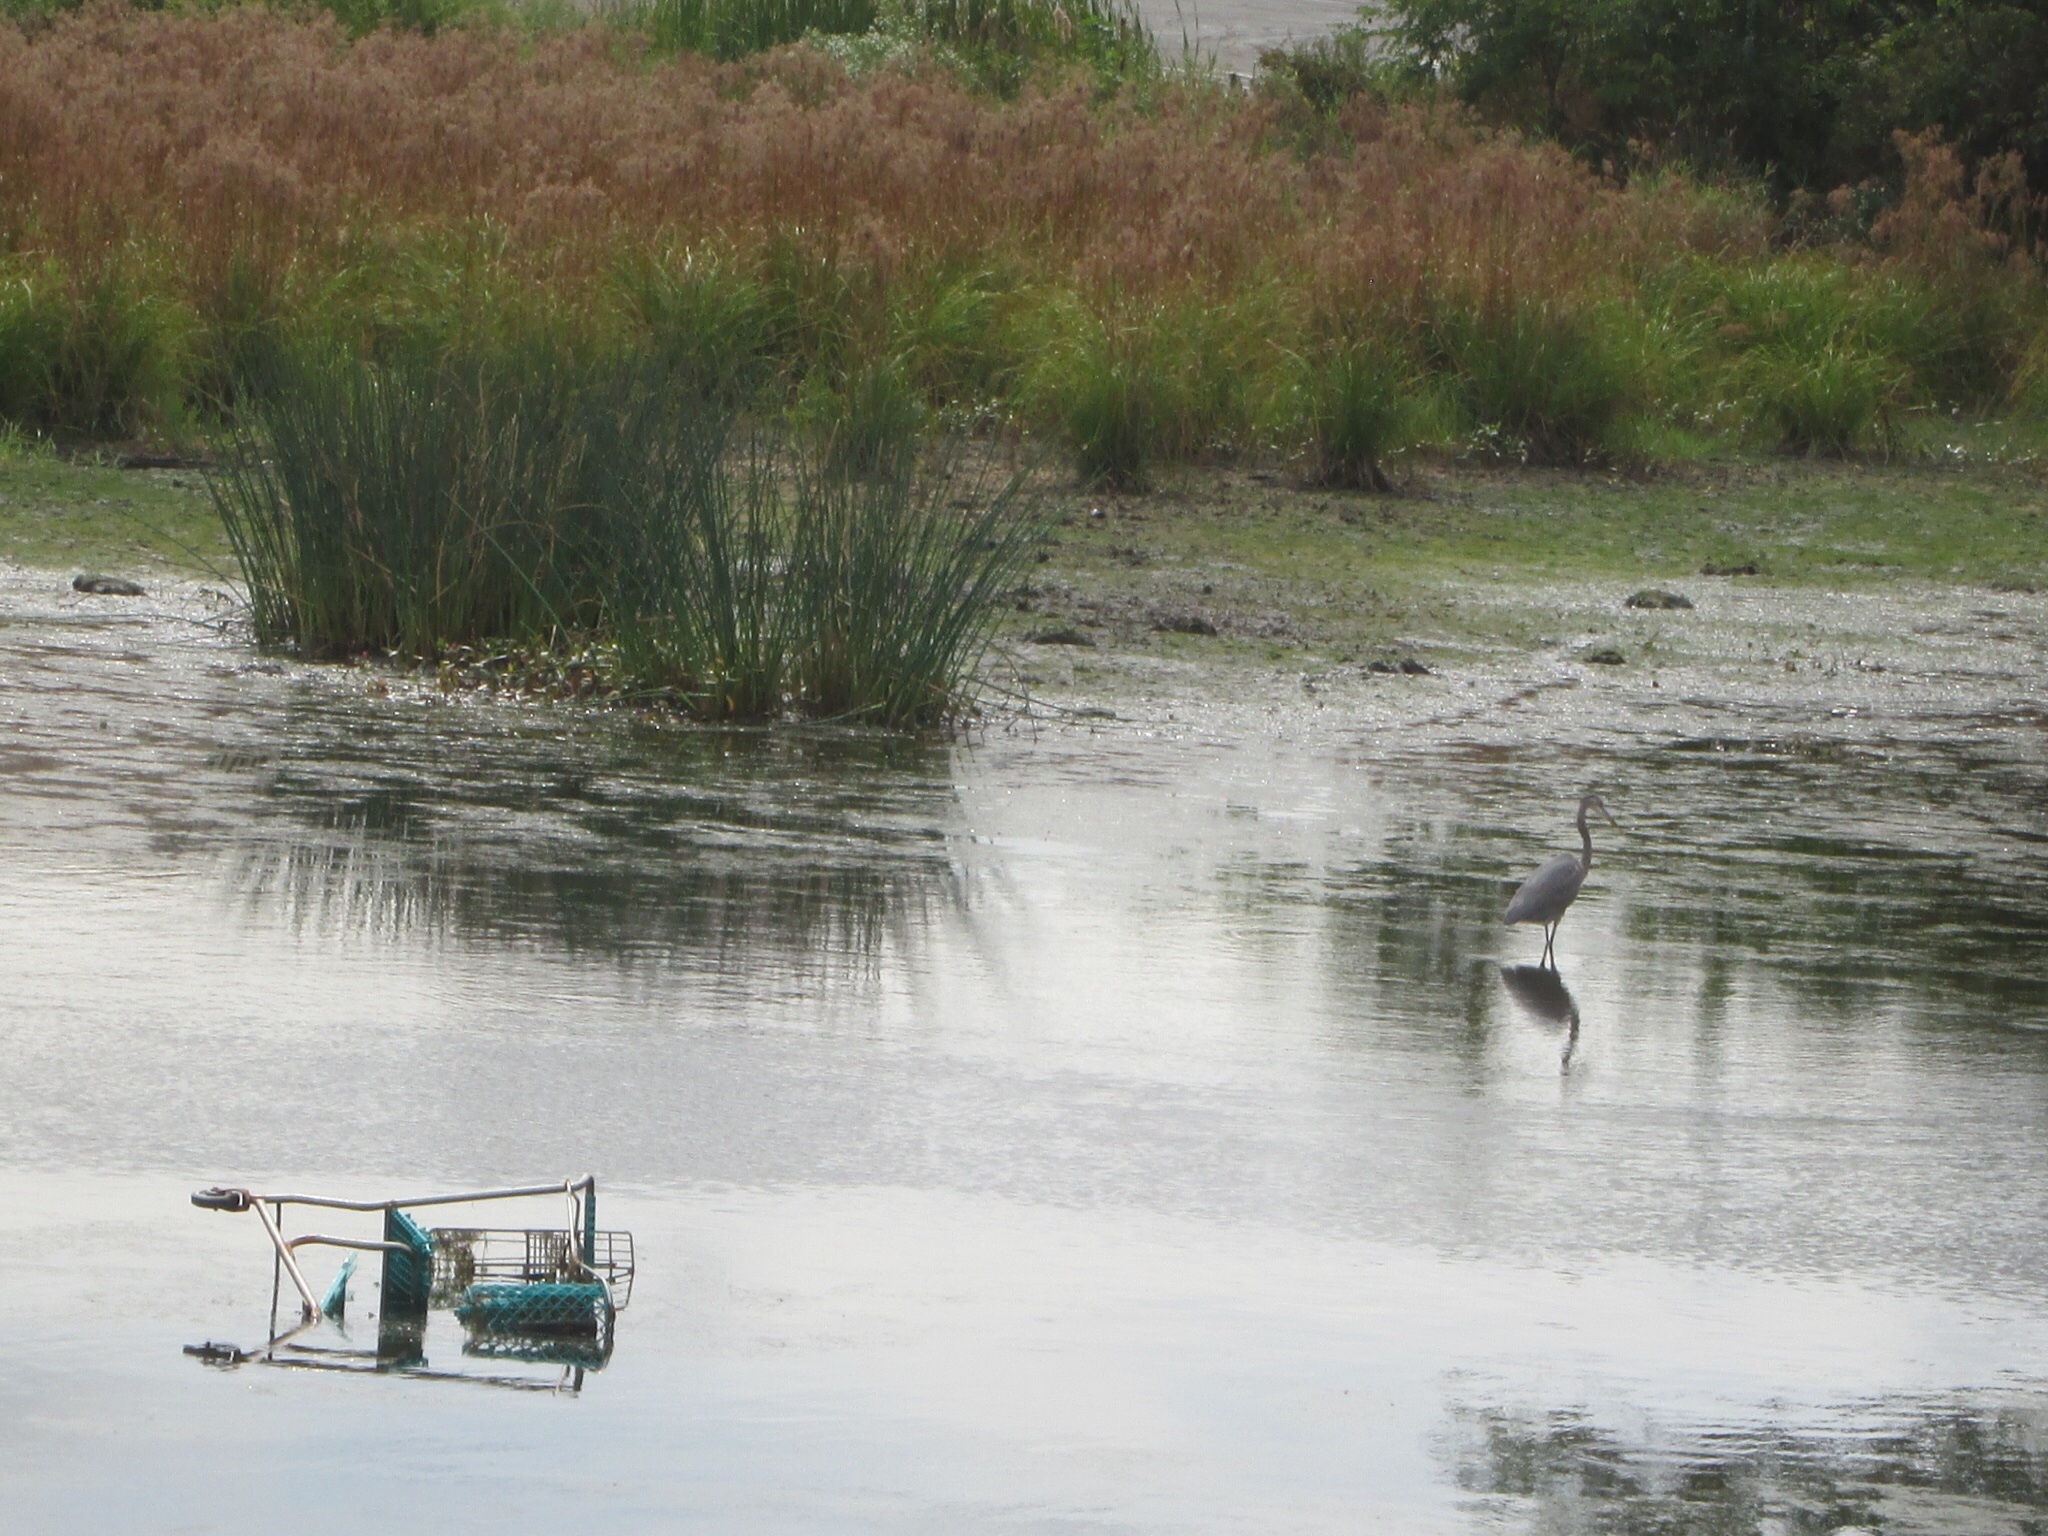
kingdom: Animalia
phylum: Chordata
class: Aves
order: Pelecaniformes
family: Ardeidae
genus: Ardea
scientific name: Ardea herodias
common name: Great blue heron
